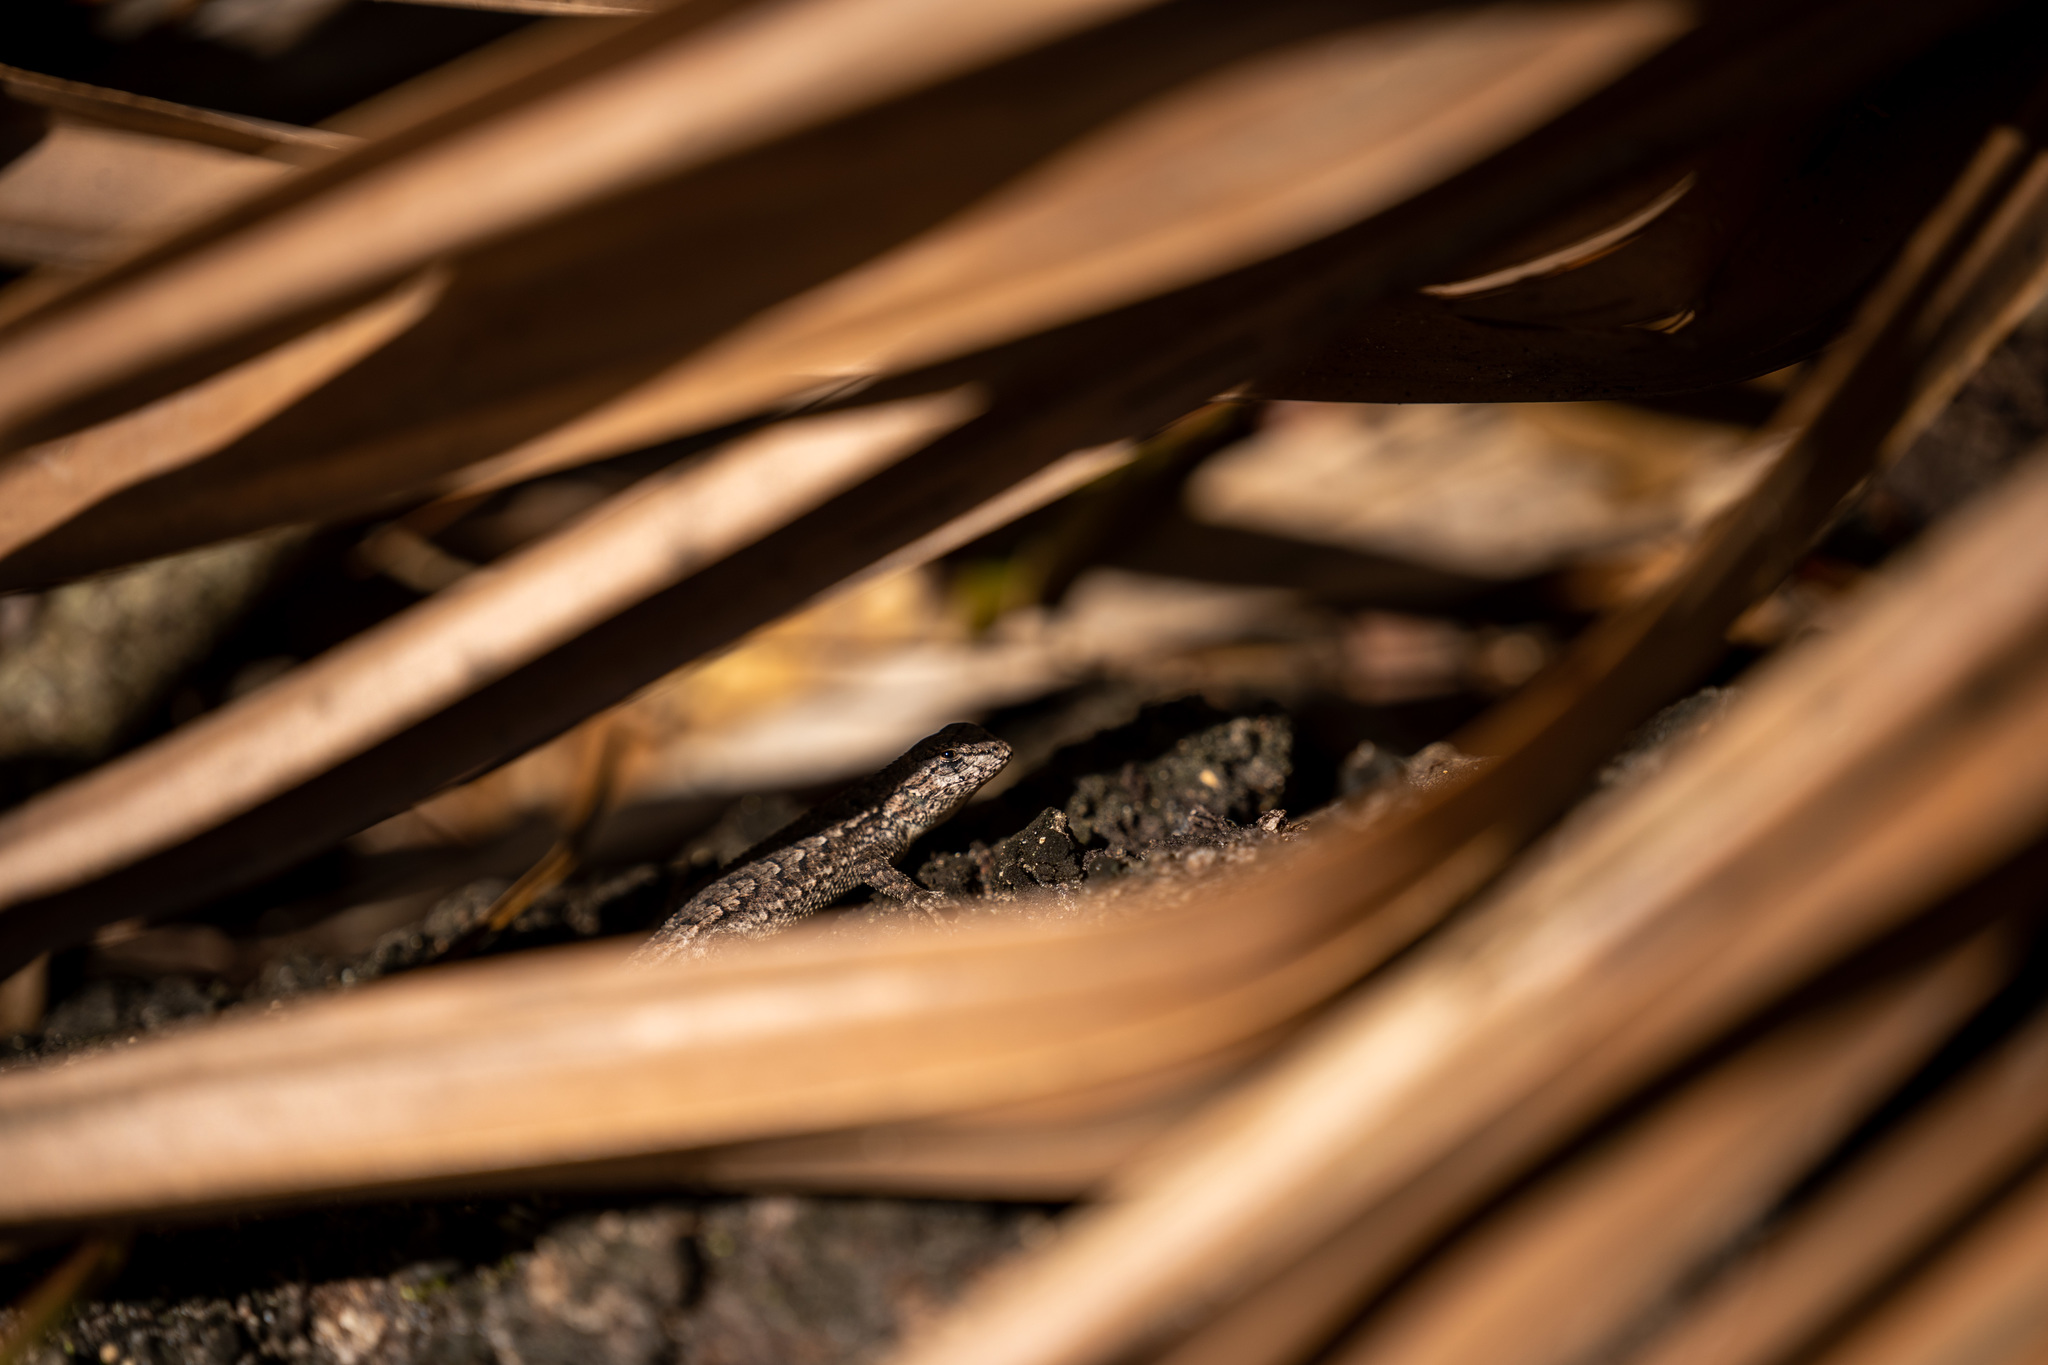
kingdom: Animalia
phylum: Chordata
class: Squamata
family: Phrynosomatidae
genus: Sceloporus
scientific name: Sceloporus consobrinus
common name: Southern prairie lizard
